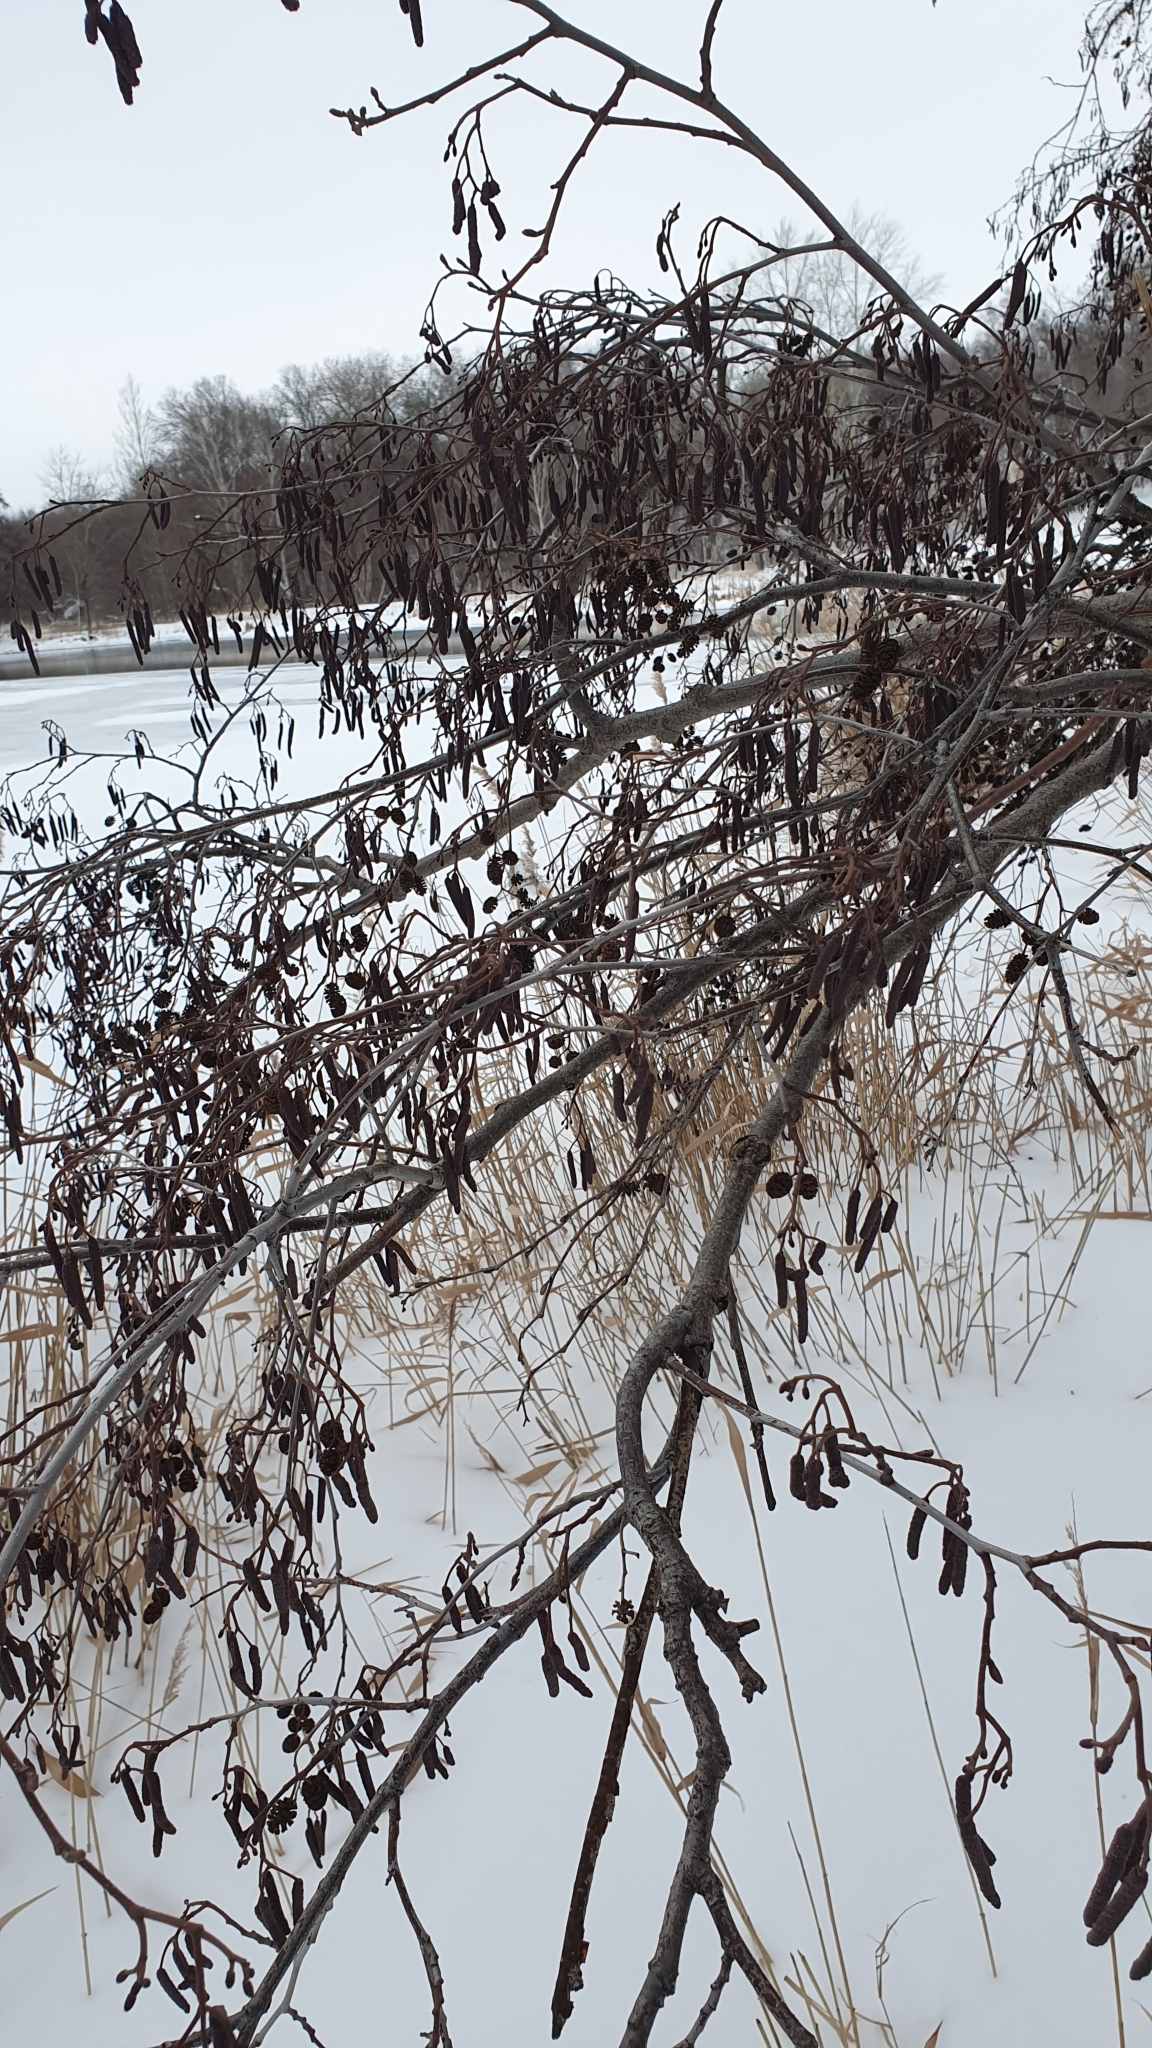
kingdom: Plantae
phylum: Tracheophyta
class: Magnoliopsida
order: Fagales
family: Betulaceae
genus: Alnus
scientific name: Alnus glutinosa
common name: Black alder
